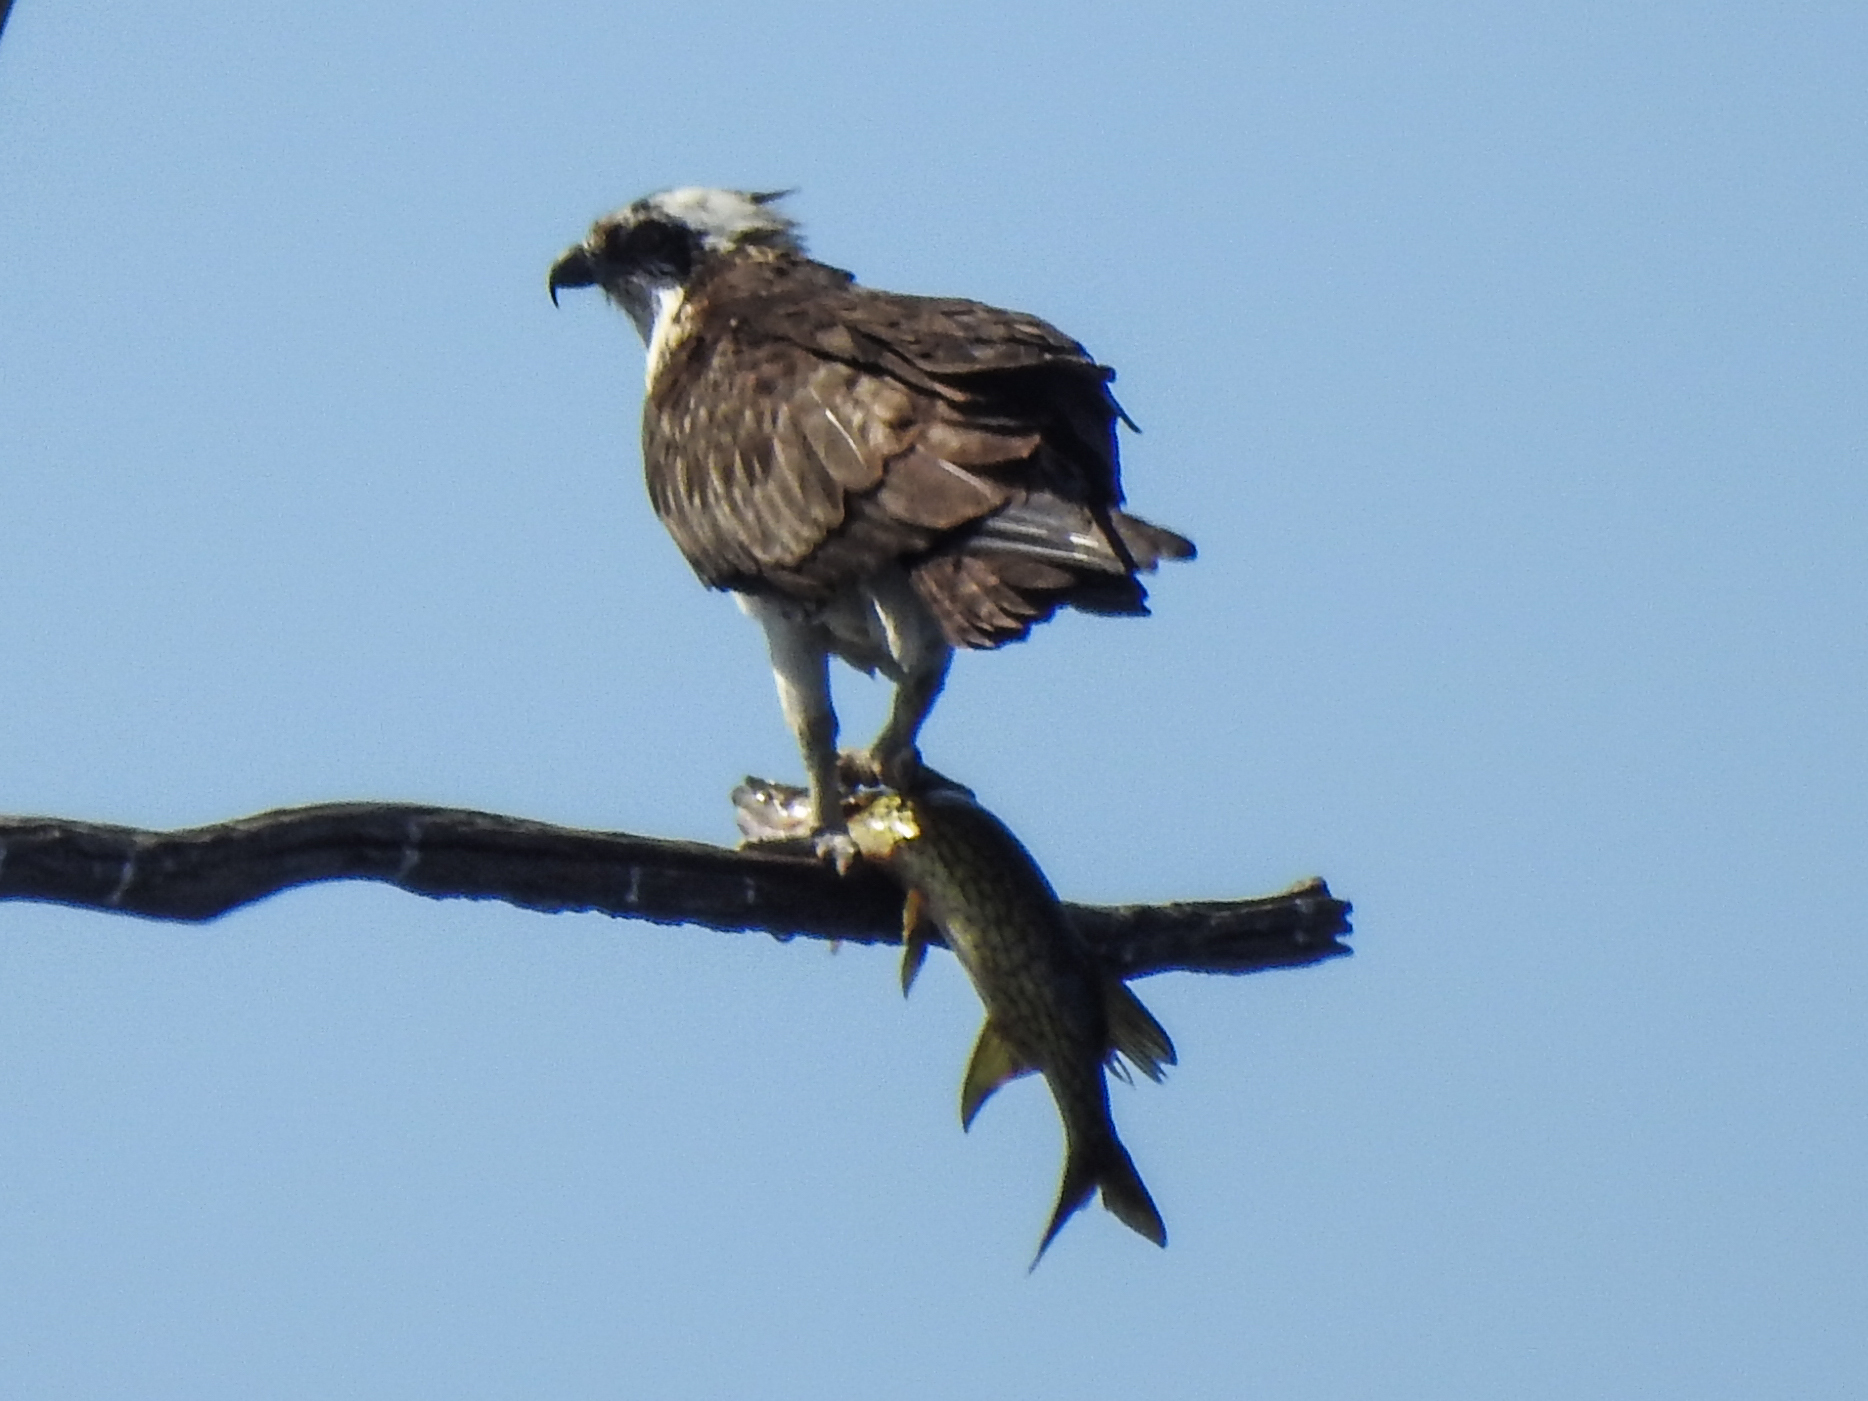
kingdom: Animalia
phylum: Chordata
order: Esociformes
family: Esocidae
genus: Esox
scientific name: Esox niger
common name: Chain pickerel
